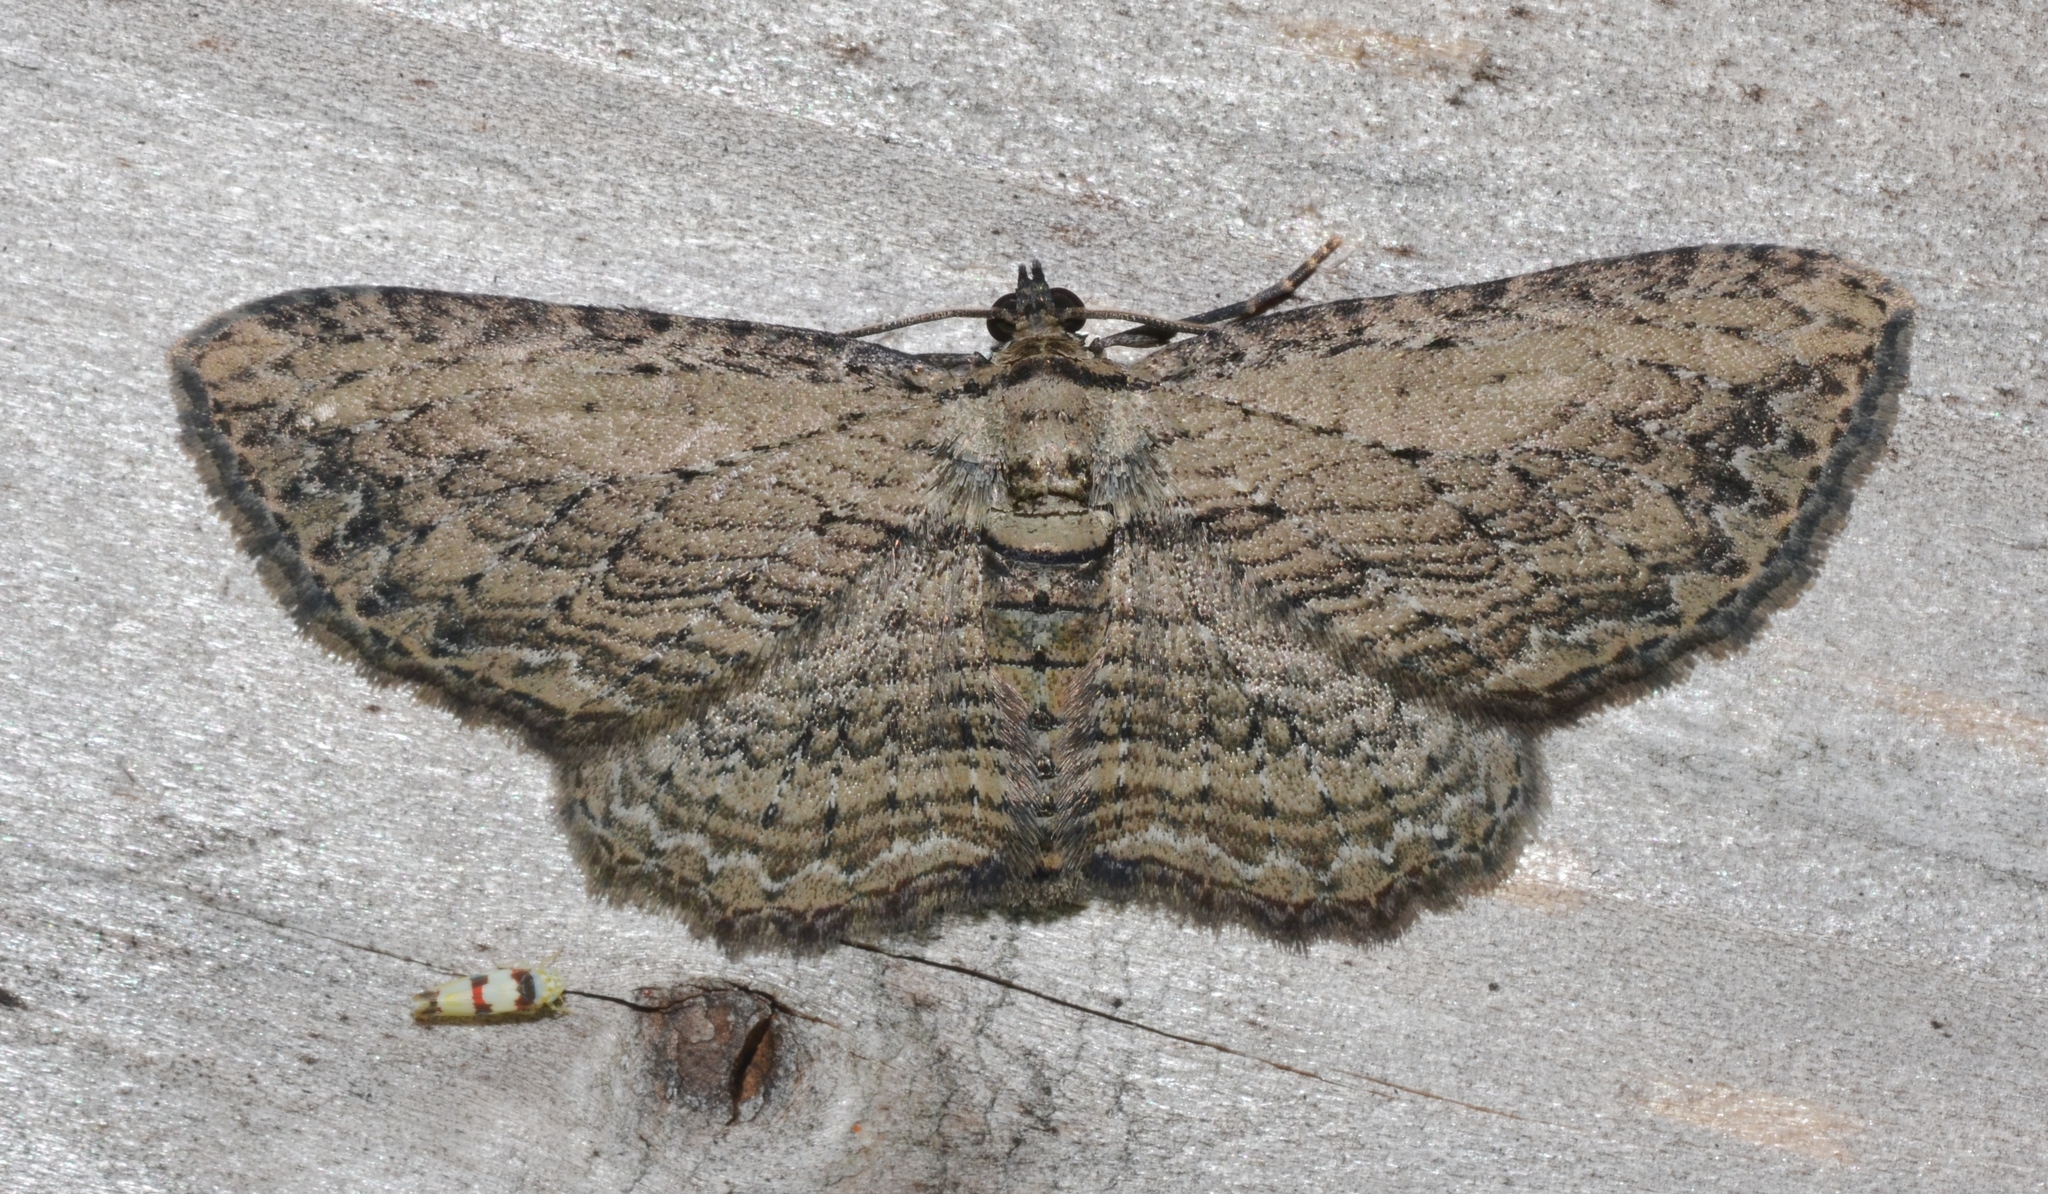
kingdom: Animalia
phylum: Arthropoda
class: Insecta
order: Lepidoptera
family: Geometridae
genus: Horisme
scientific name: Horisme intestinata
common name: Brown bark carpet
